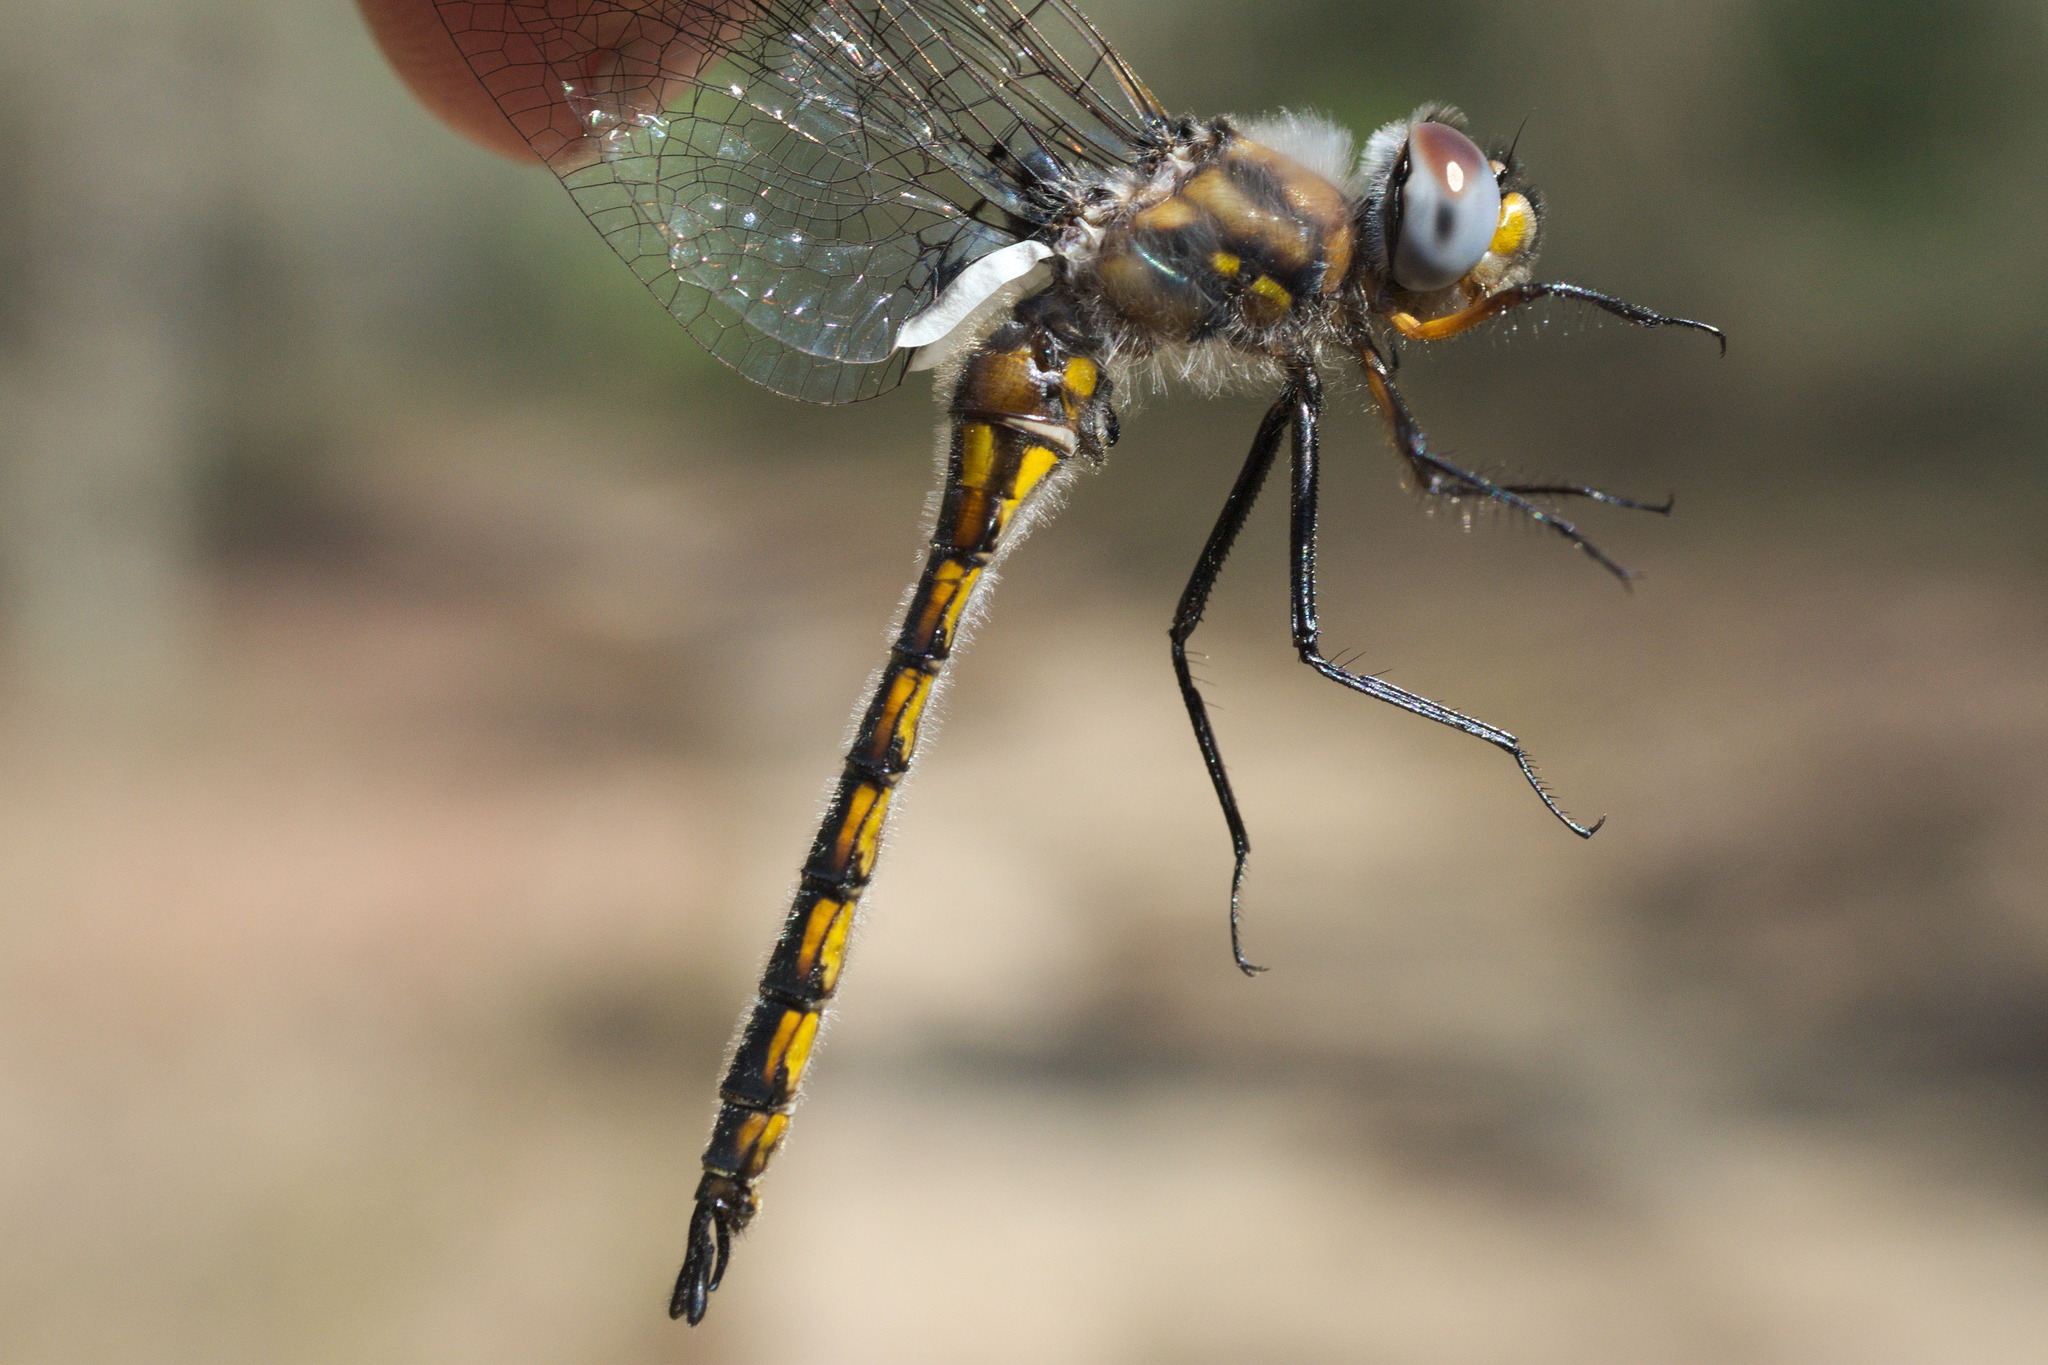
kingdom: Animalia
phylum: Arthropoda
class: Insecta
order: Odonata
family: Corduliidae
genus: Epitheca
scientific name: Epitheca cynosura
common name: Common baskettail
